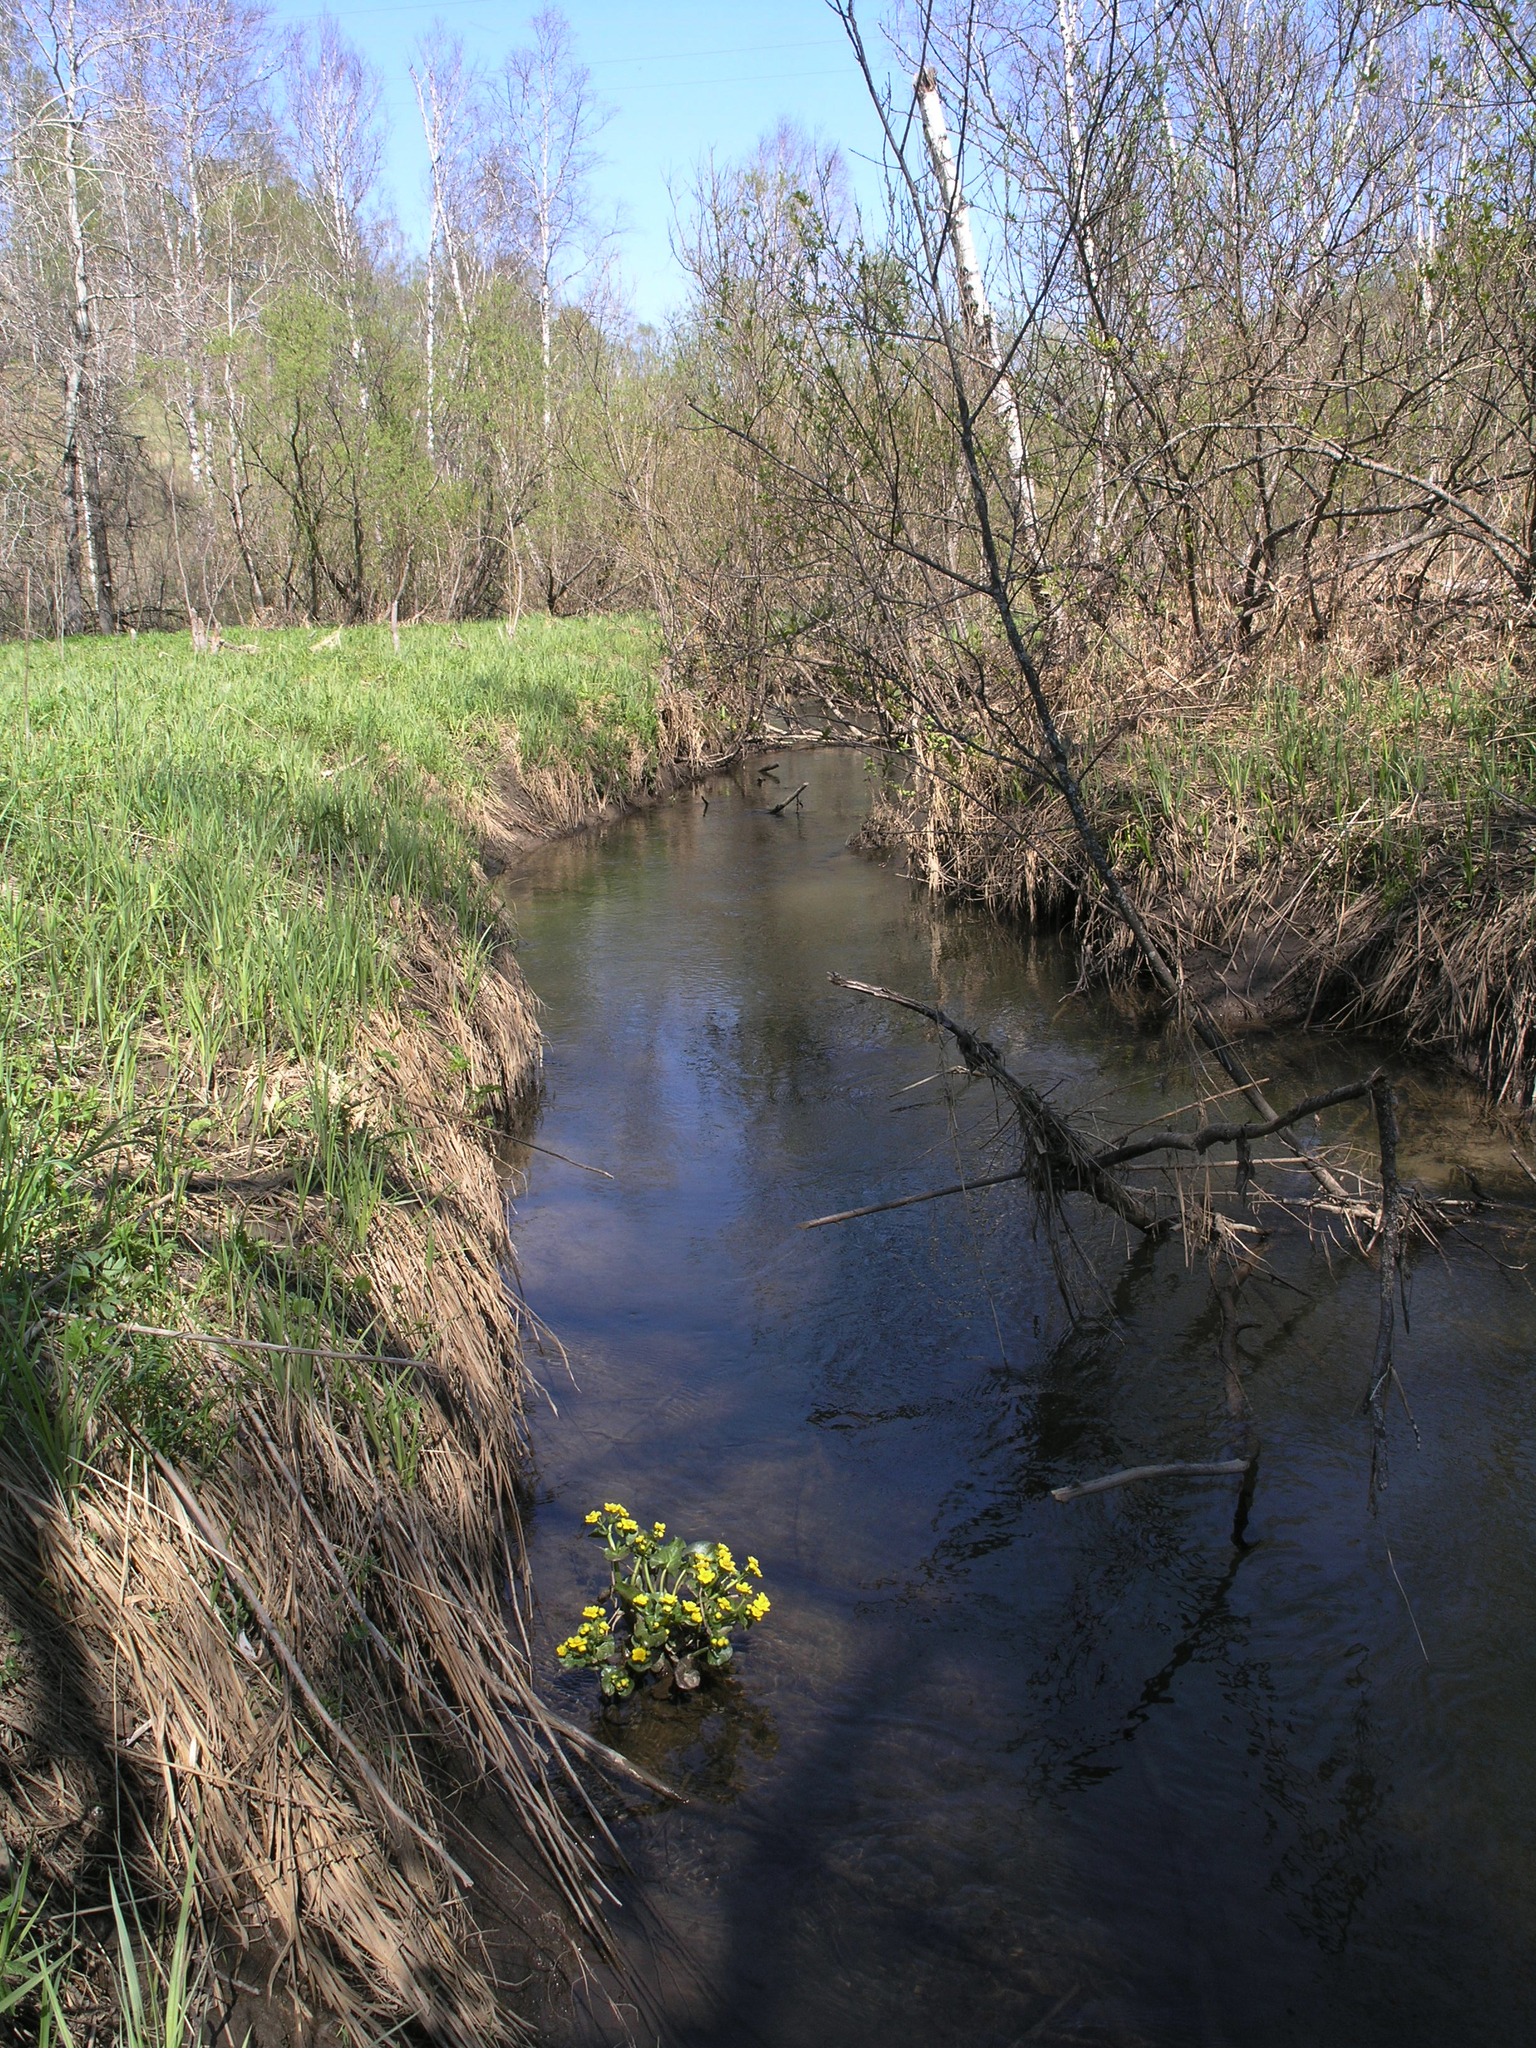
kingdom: Plantae
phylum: Tracheophyta
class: Magnoliopsida
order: Ranunculales
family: Ranunculaceae
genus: Caltha
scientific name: Caltha palustris
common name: Marsh marigold
